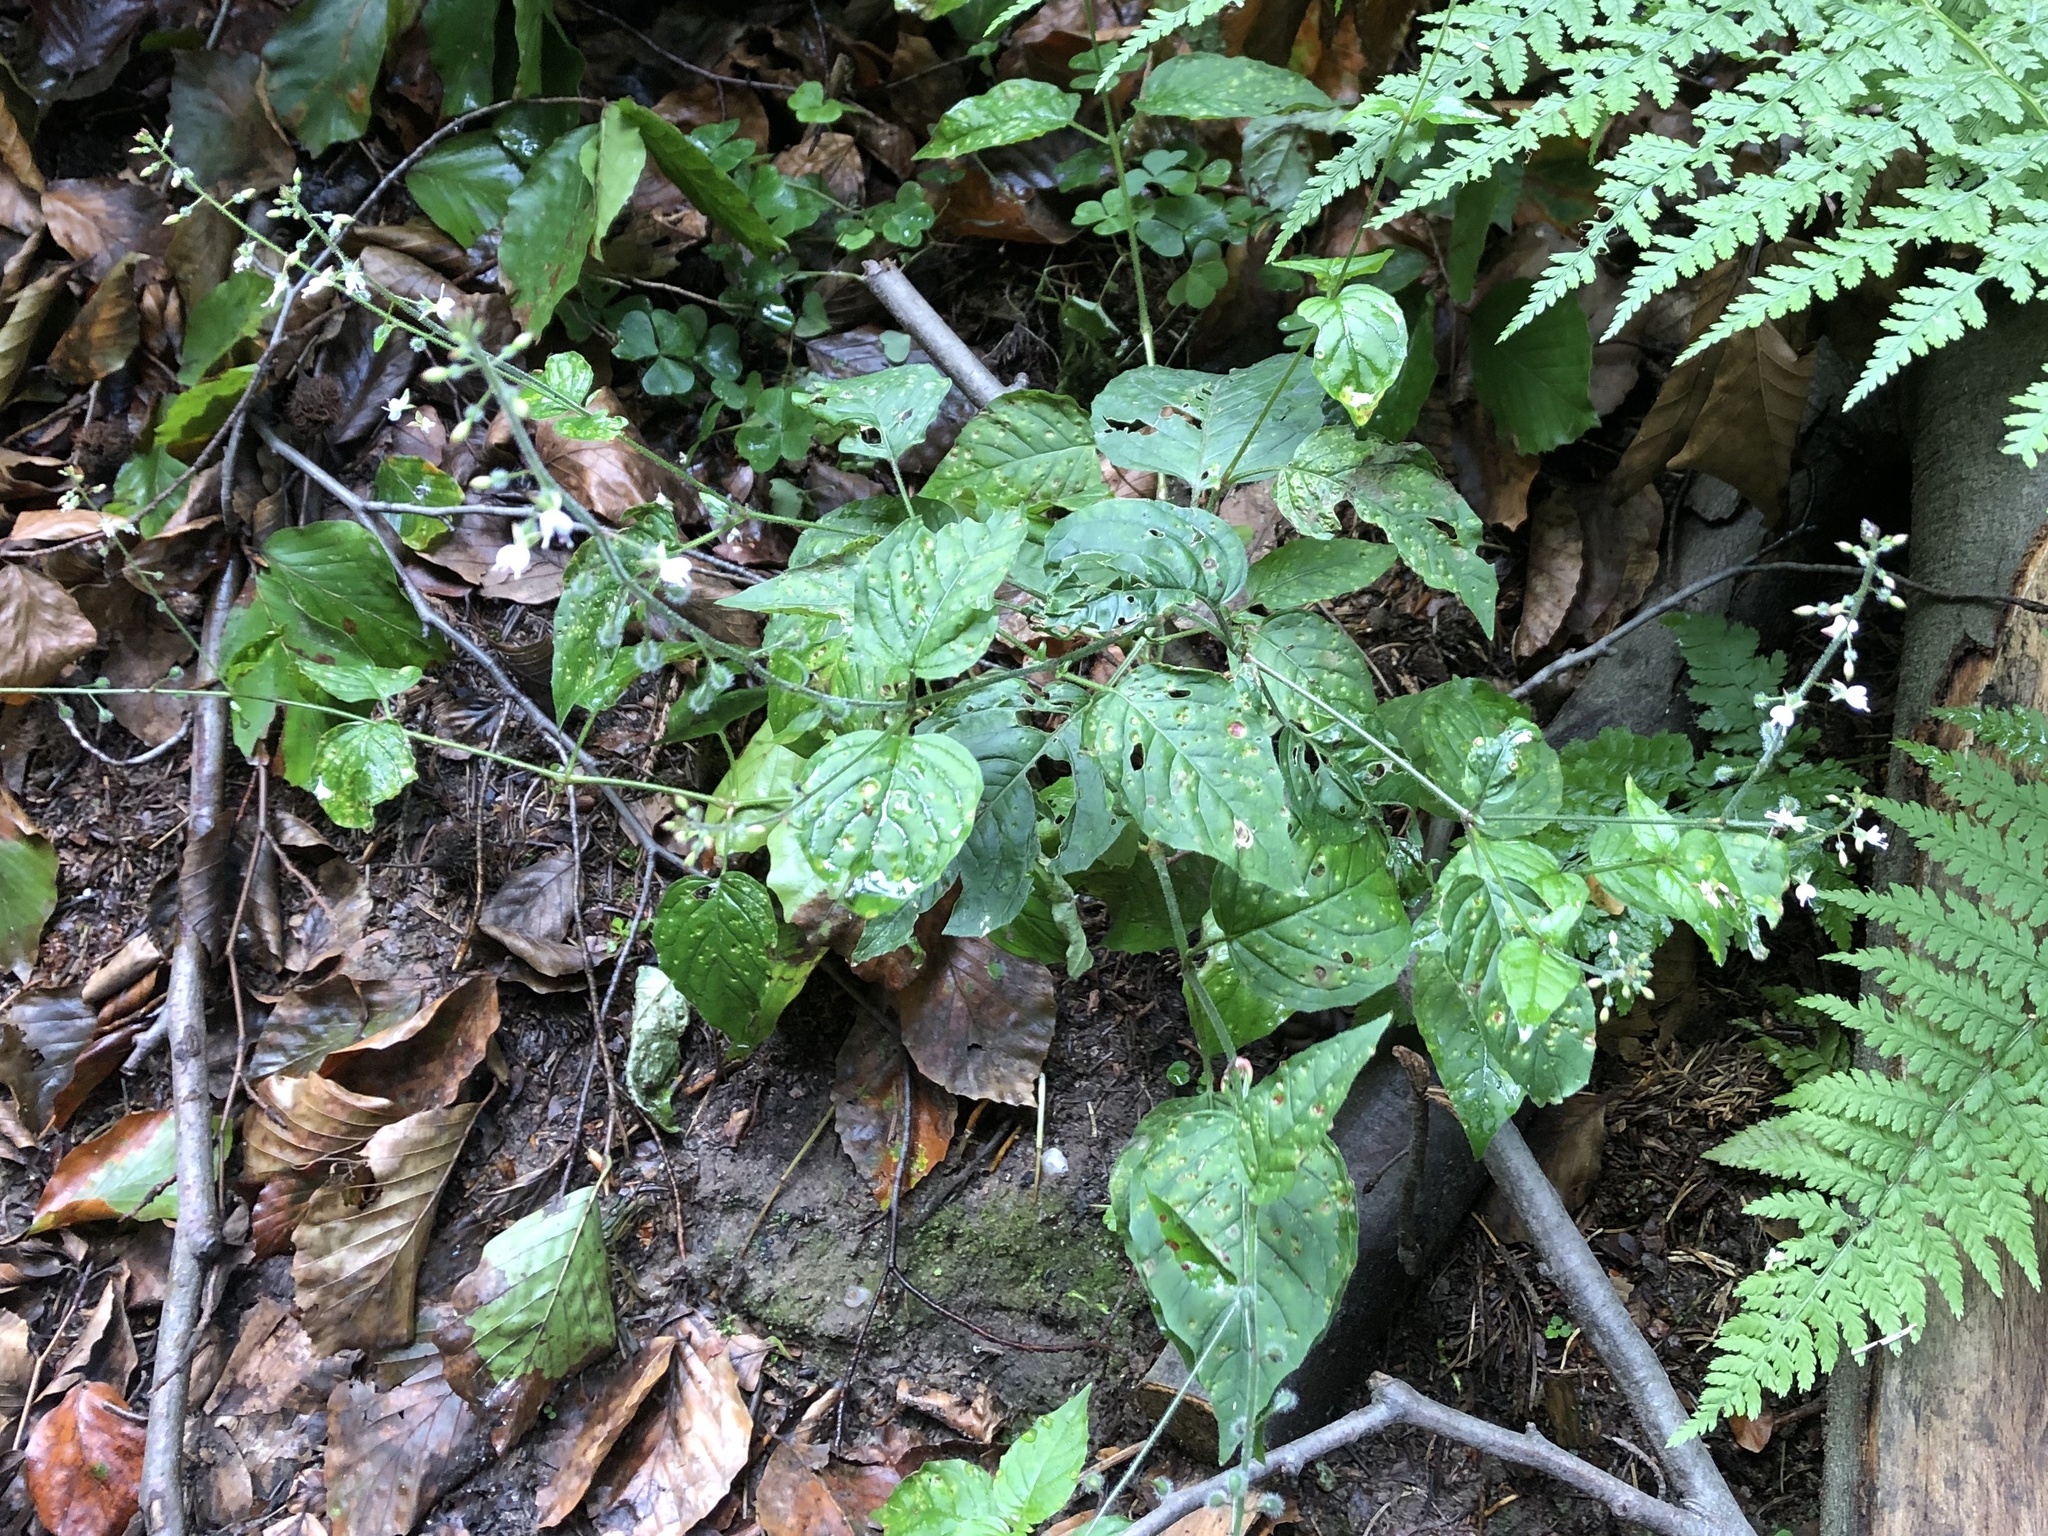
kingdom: Plantae
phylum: Tracheophyta
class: Magnoliopsida
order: Myrtales
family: Onagraceae
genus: Circaea
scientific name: Circaea lutetiana
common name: Enchanter's-nightshade
